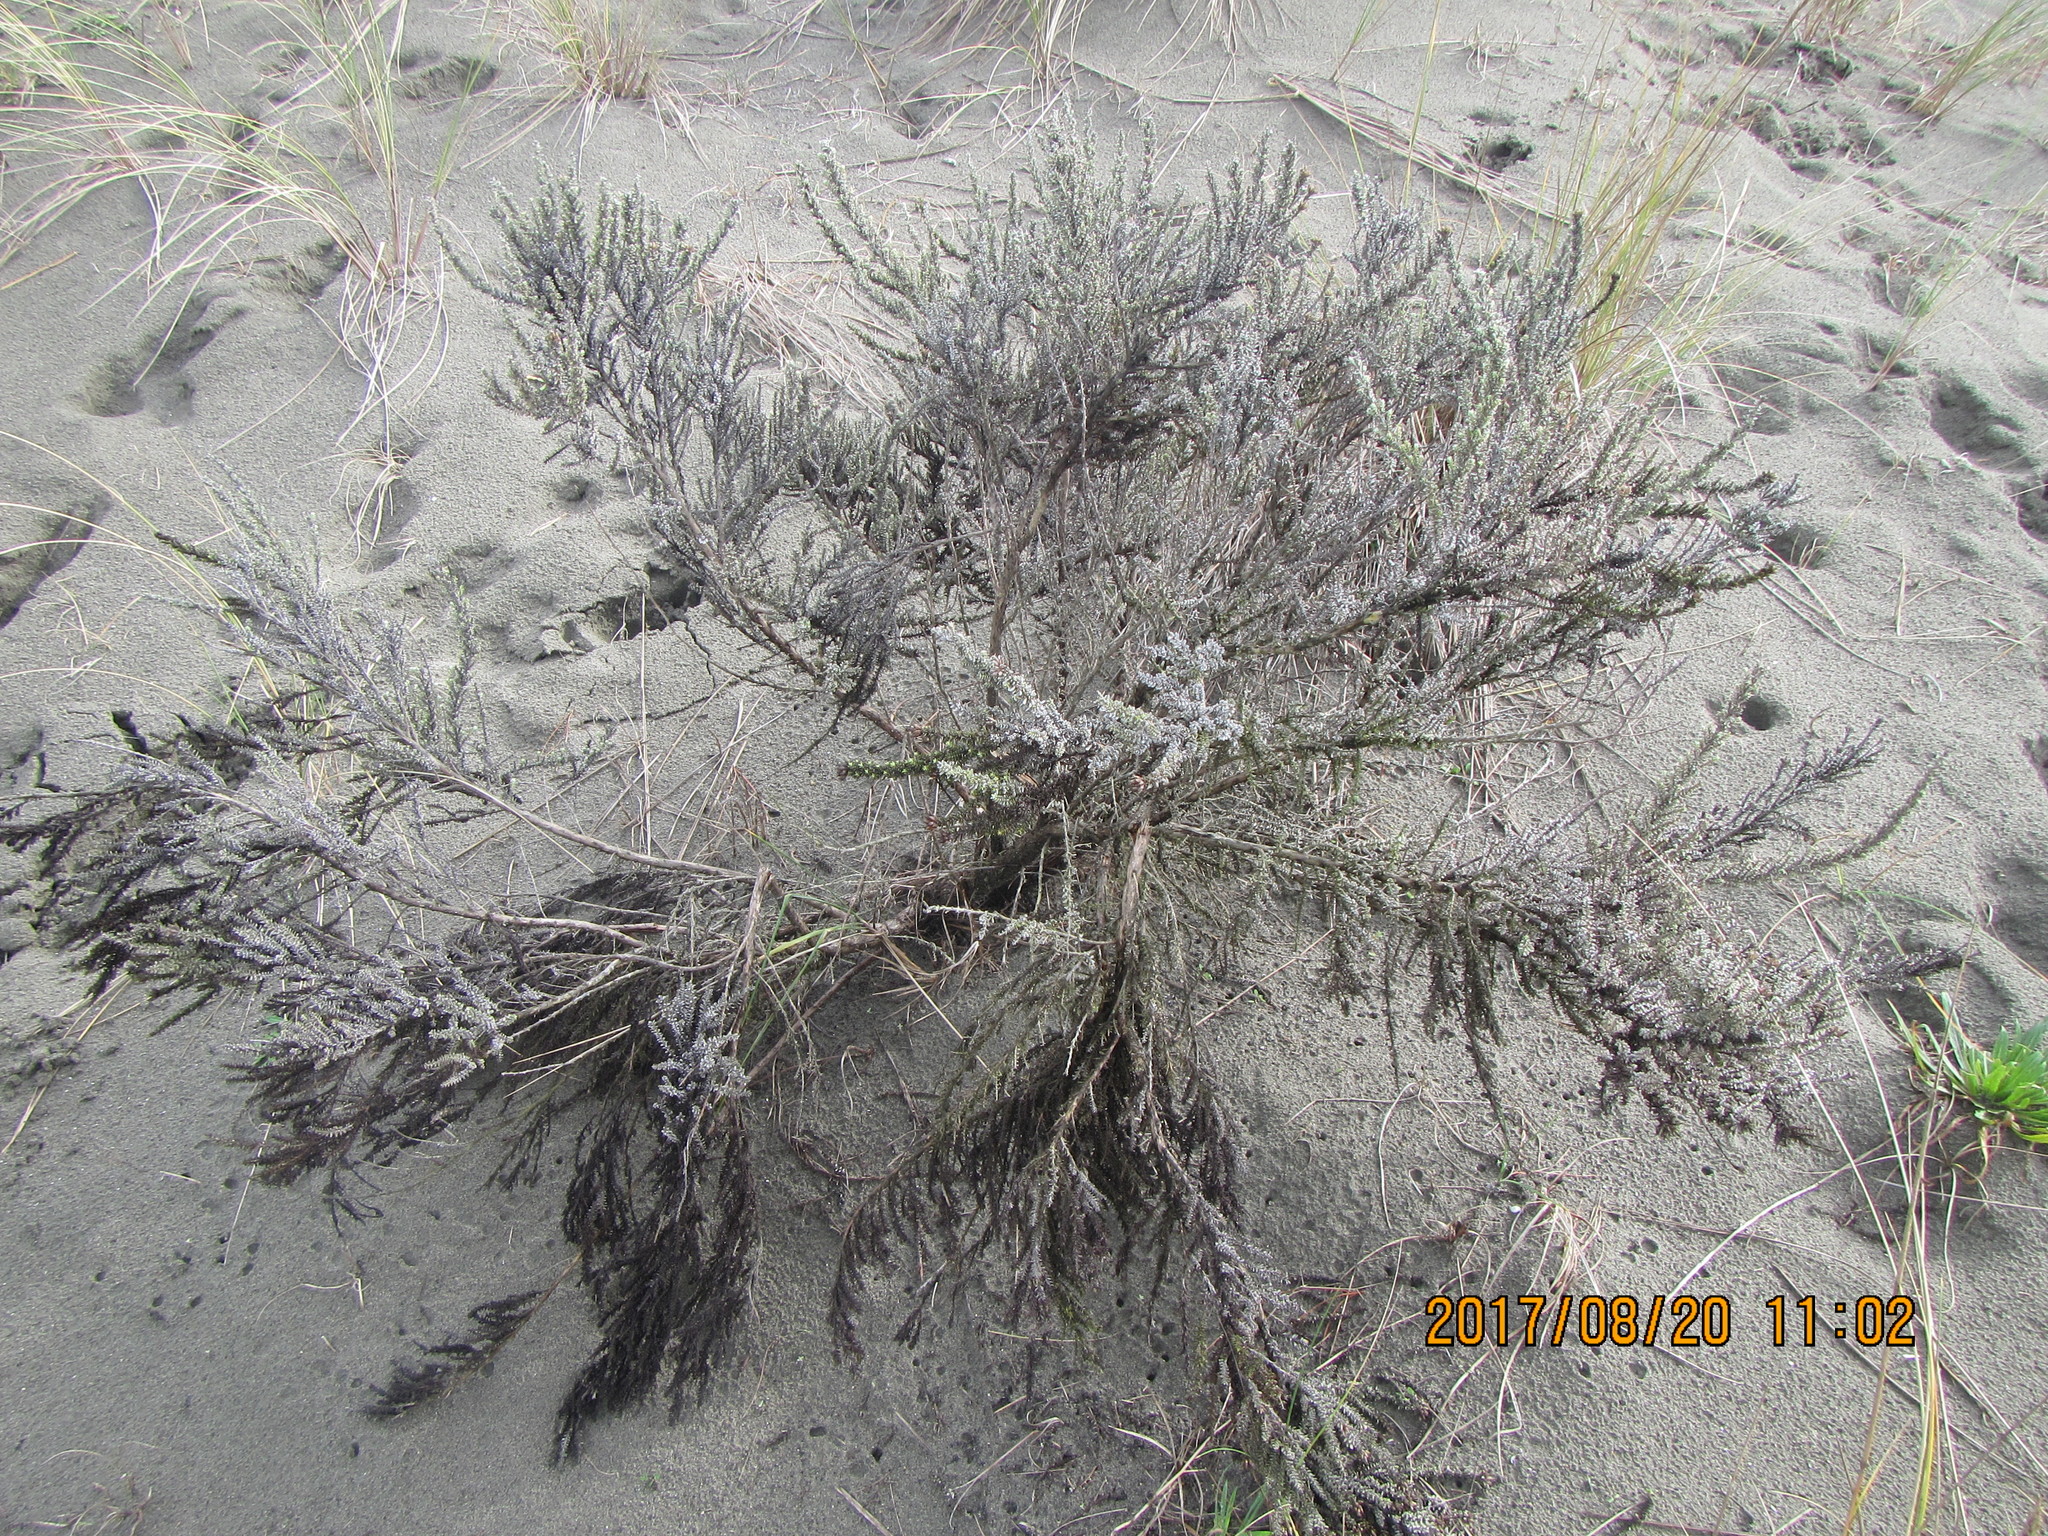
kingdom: Plantae
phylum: Tracheophyta
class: Magnoliopsida
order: Asterales
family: Asteraceae
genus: Ozothamnus
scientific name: Ozothamnus leptophyllus
